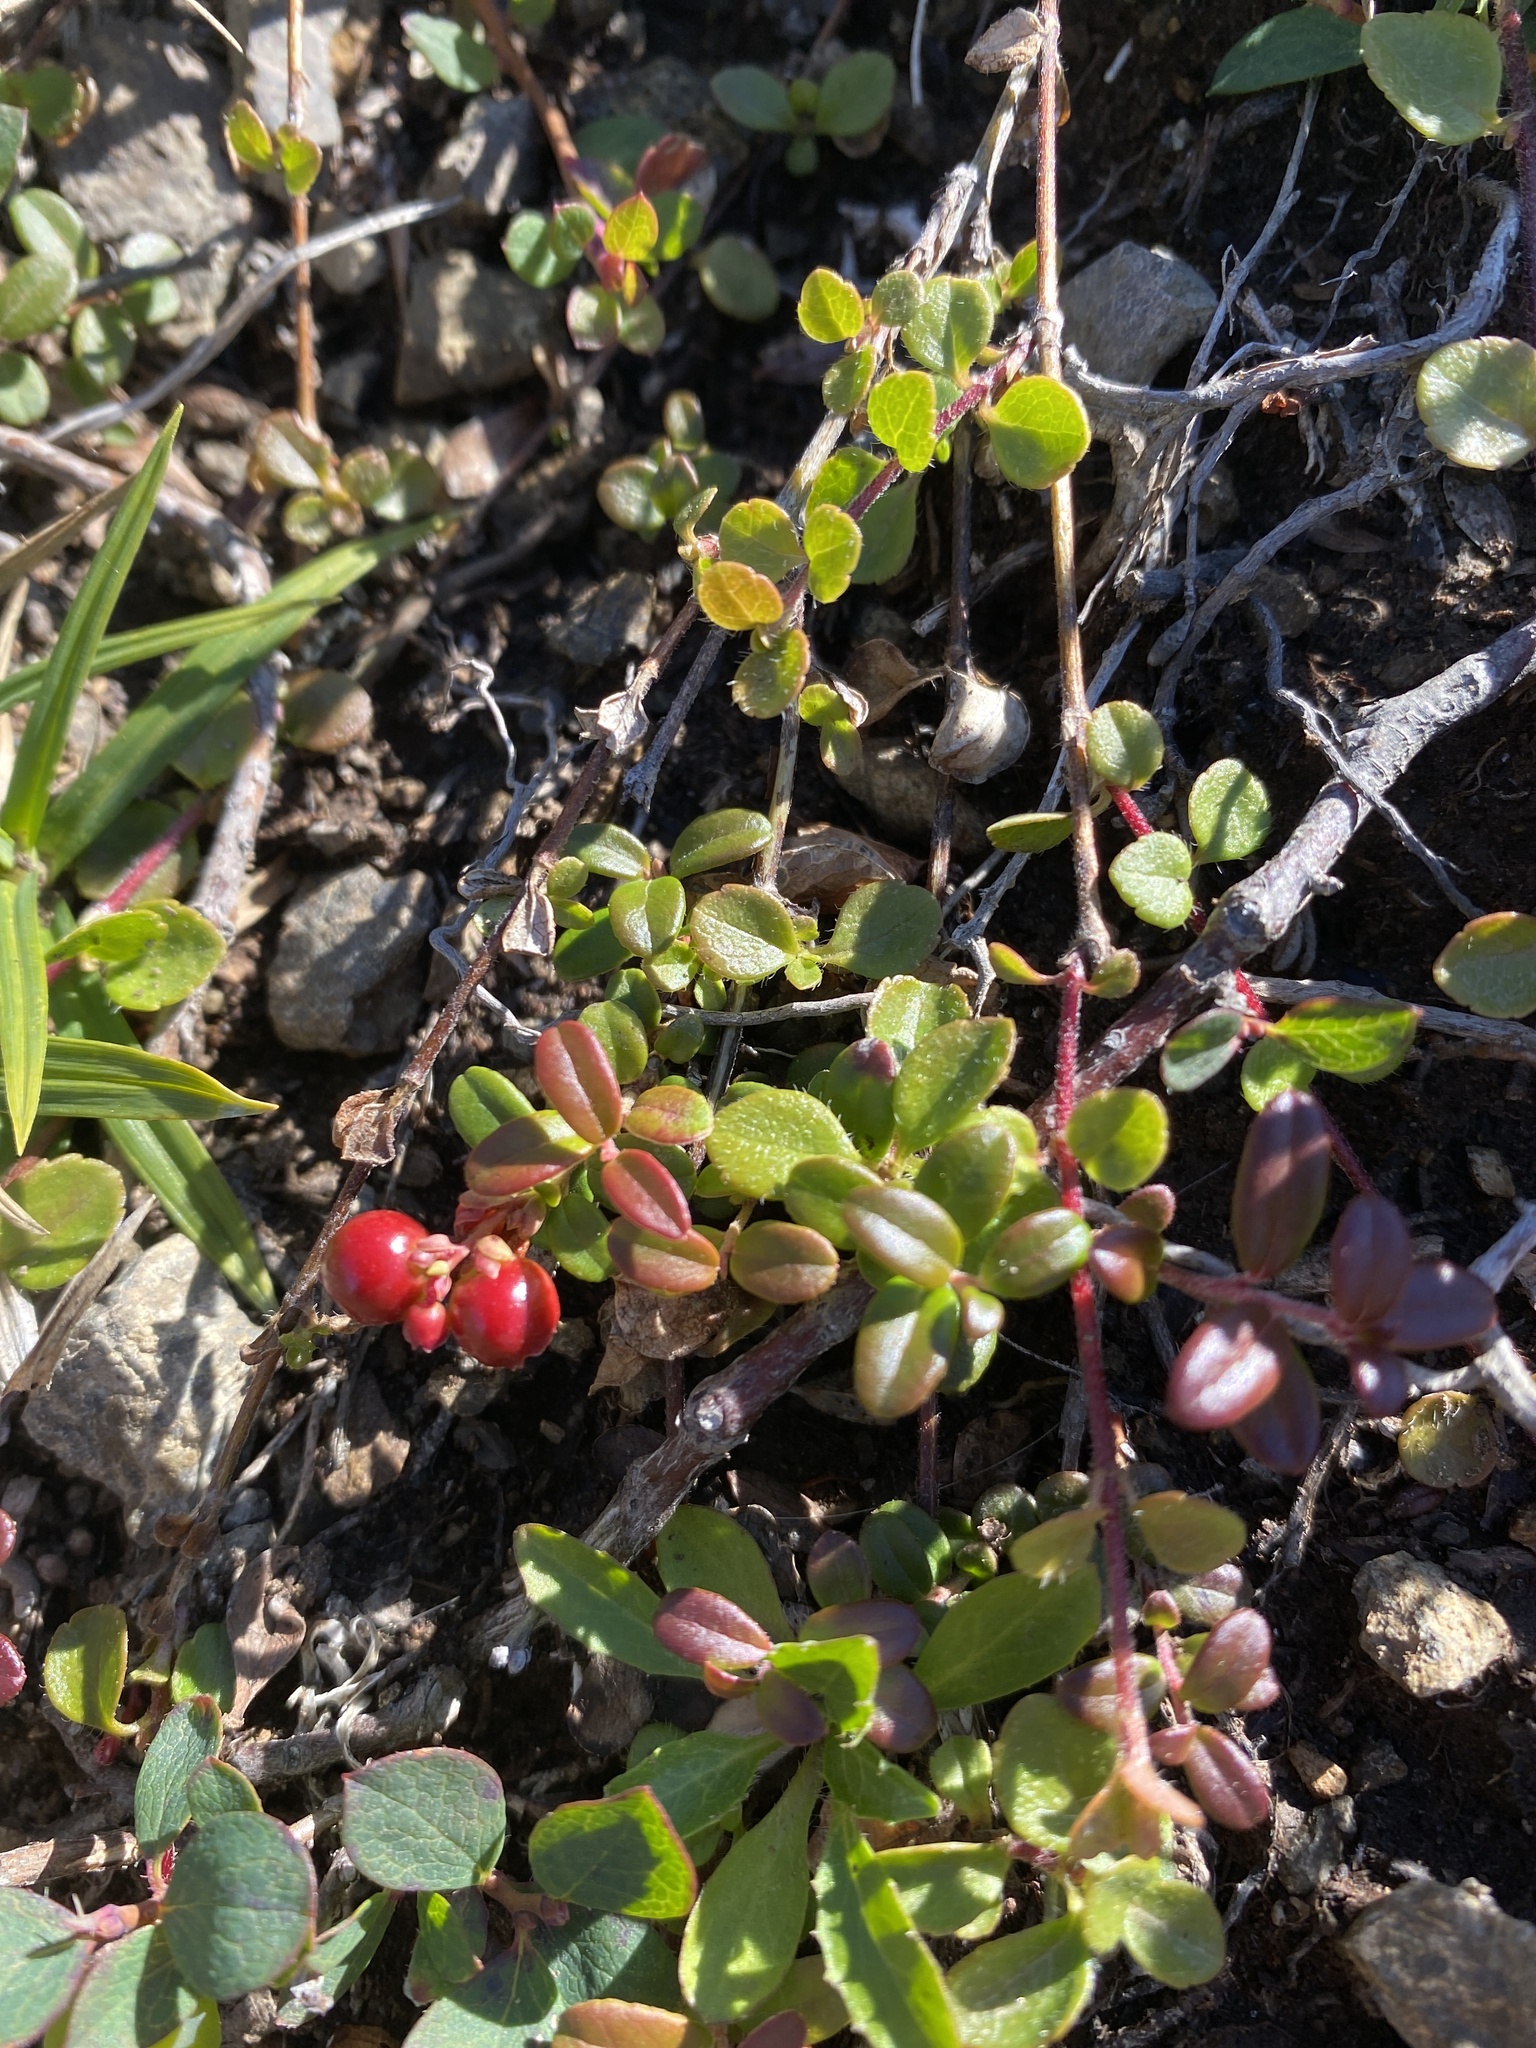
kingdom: Plantae
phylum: Tracheophyta
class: Magnoliopsida
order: Ericales
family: Ericaceae
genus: Vaccinium
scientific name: Vaccinium vitis-idaea
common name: Cowberry
